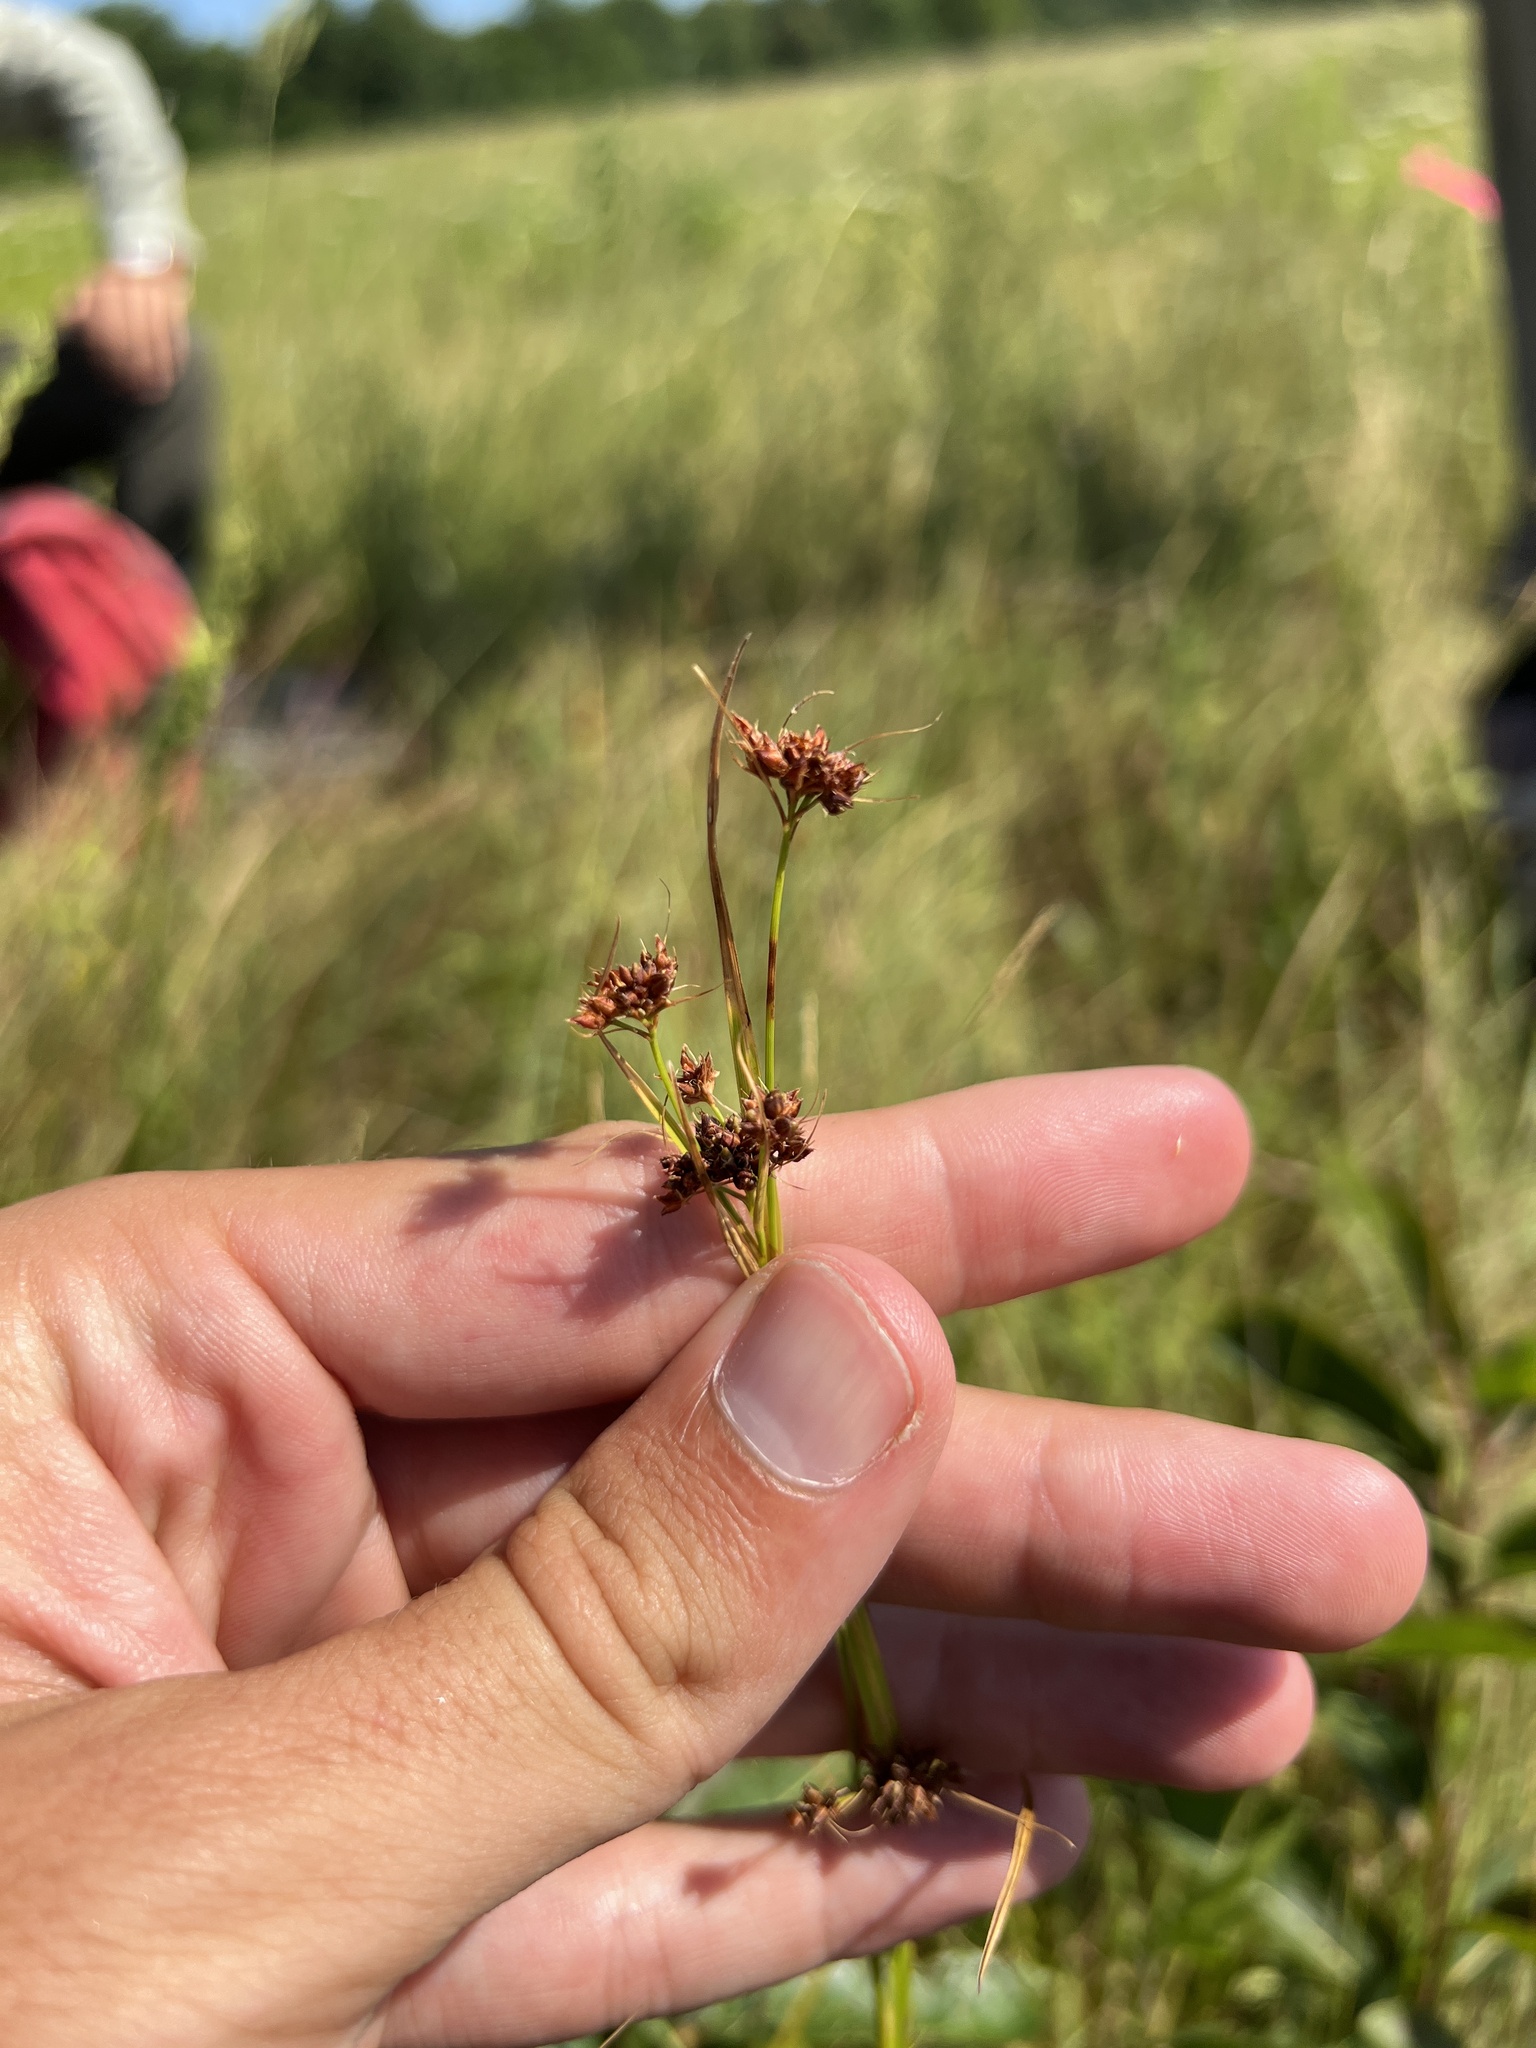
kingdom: Plantae
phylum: Tracheophyta
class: Liliopsida
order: Poales
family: Cyperaceae
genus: Rhynchospora
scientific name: Rhynchospora globularis
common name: Globe beaksedge
